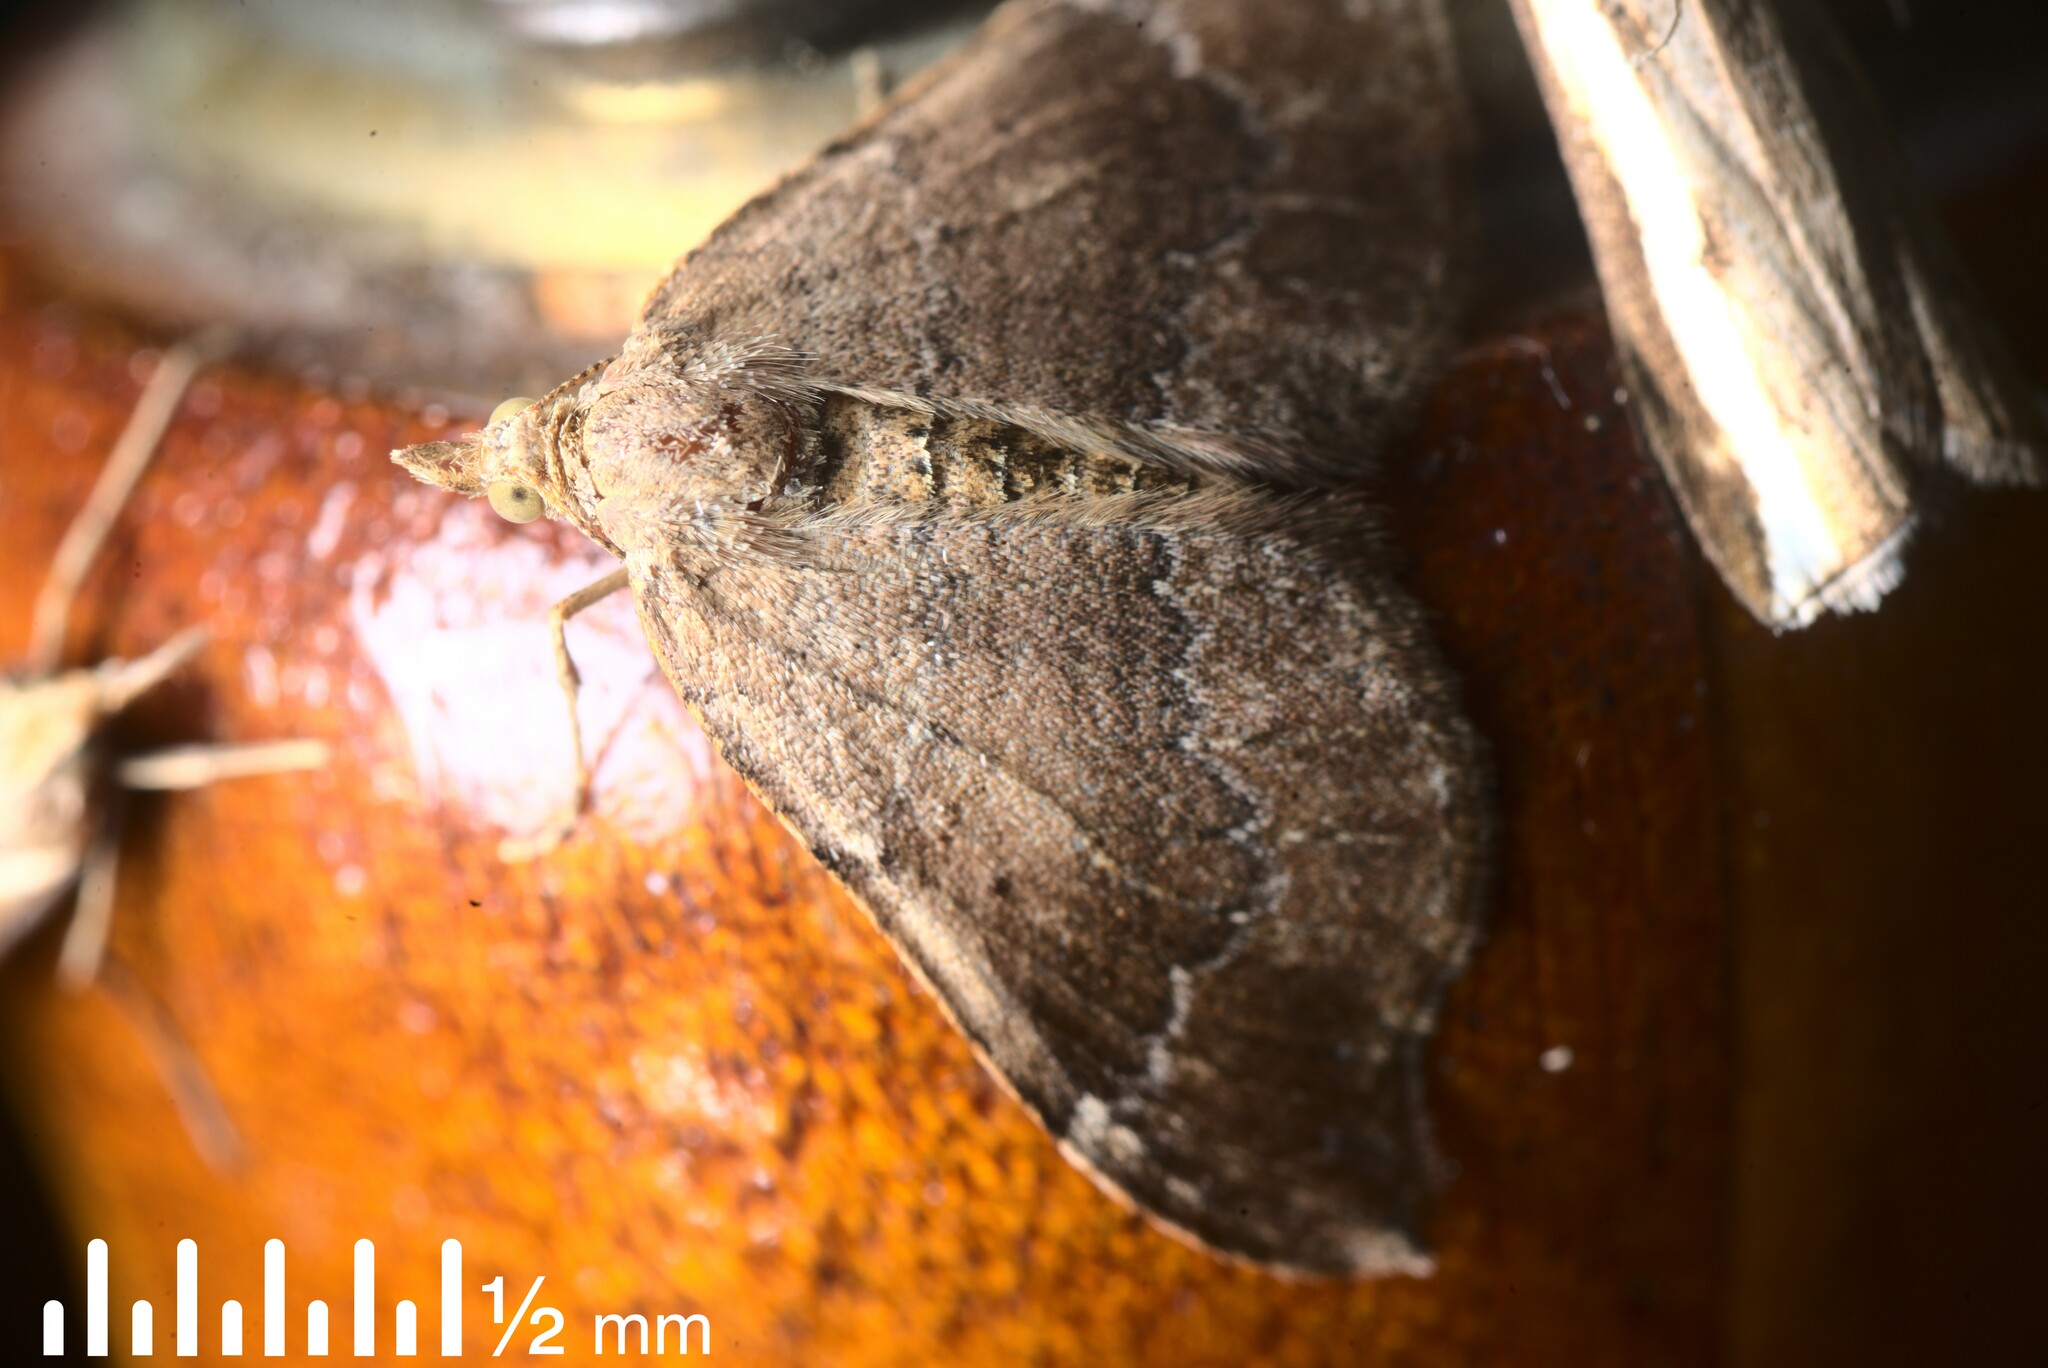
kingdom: Animalia
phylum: Arthropoda
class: Insecta
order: Lepidoptera
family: Geometridae
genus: Homodotis
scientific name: Homodotis megaspilata
